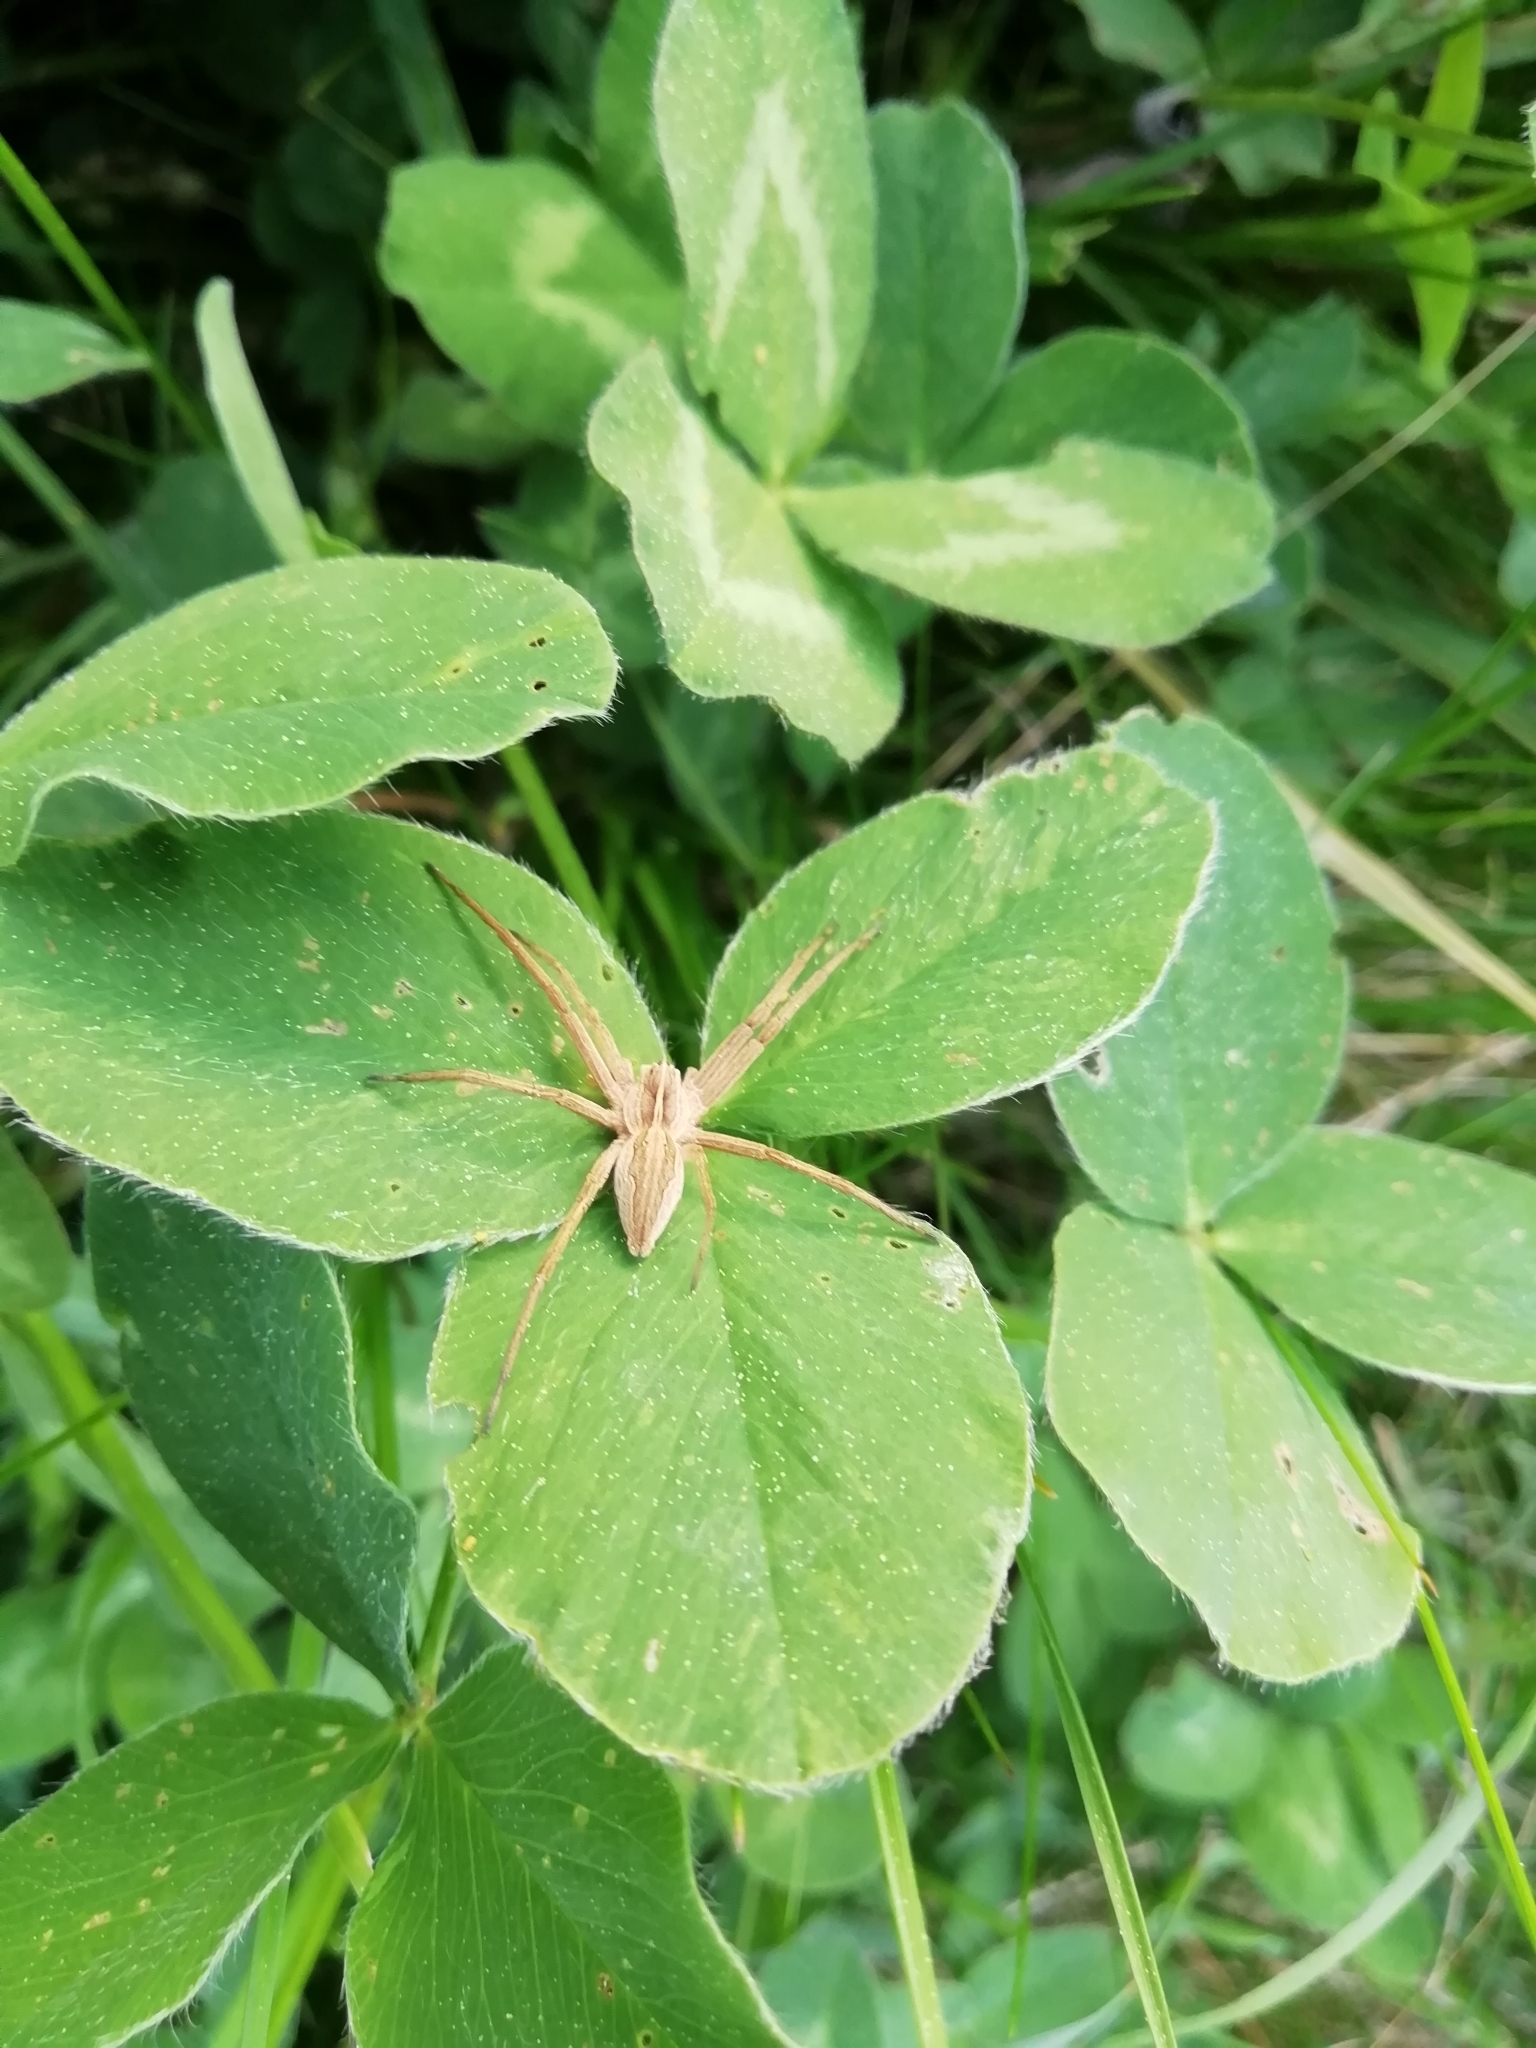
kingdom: Animalia
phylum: Arthropoda
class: Arachnida
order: Araneae
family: Pisauridae
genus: Pisaura
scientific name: Pisaura mirabilis
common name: Tent spider
